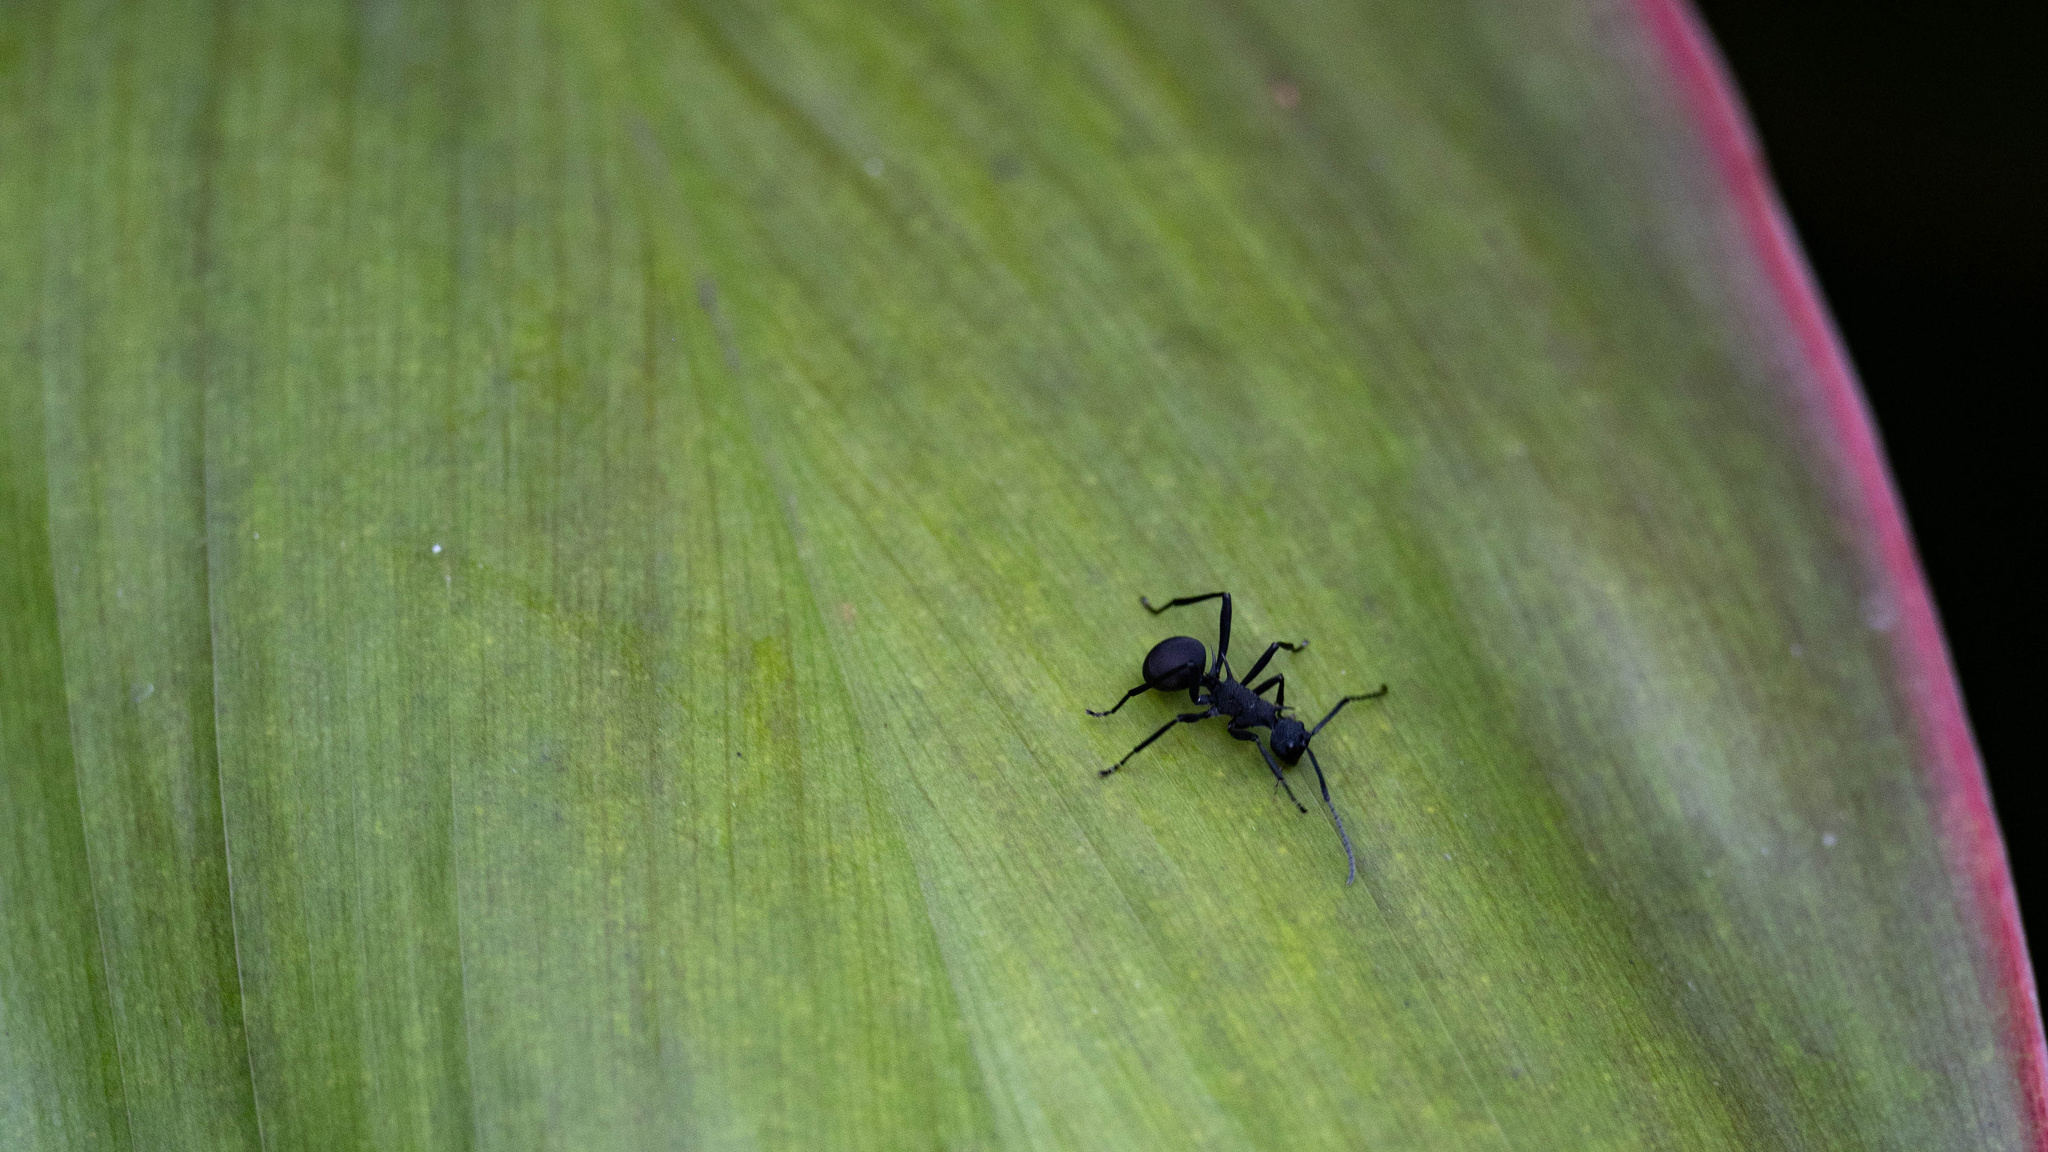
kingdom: Animalia
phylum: Arthropoda
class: Insecta
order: Hymenoptera
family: Formicidae
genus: Polyrhachis
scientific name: Polyrhachis armata
